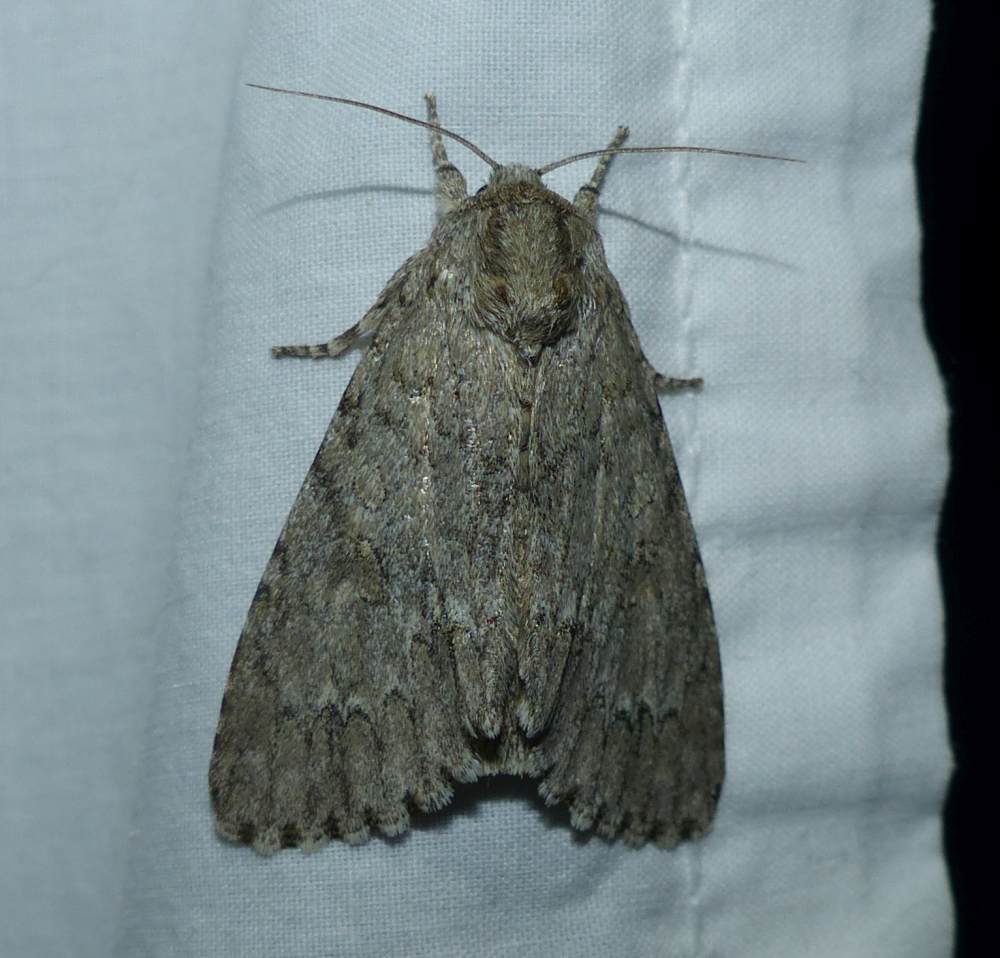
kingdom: Animalia
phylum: Arthropoda
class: Insecta
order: Lepidoptera
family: Noctuidae
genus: Acronicta
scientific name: Acronicta americana
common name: American dagger
